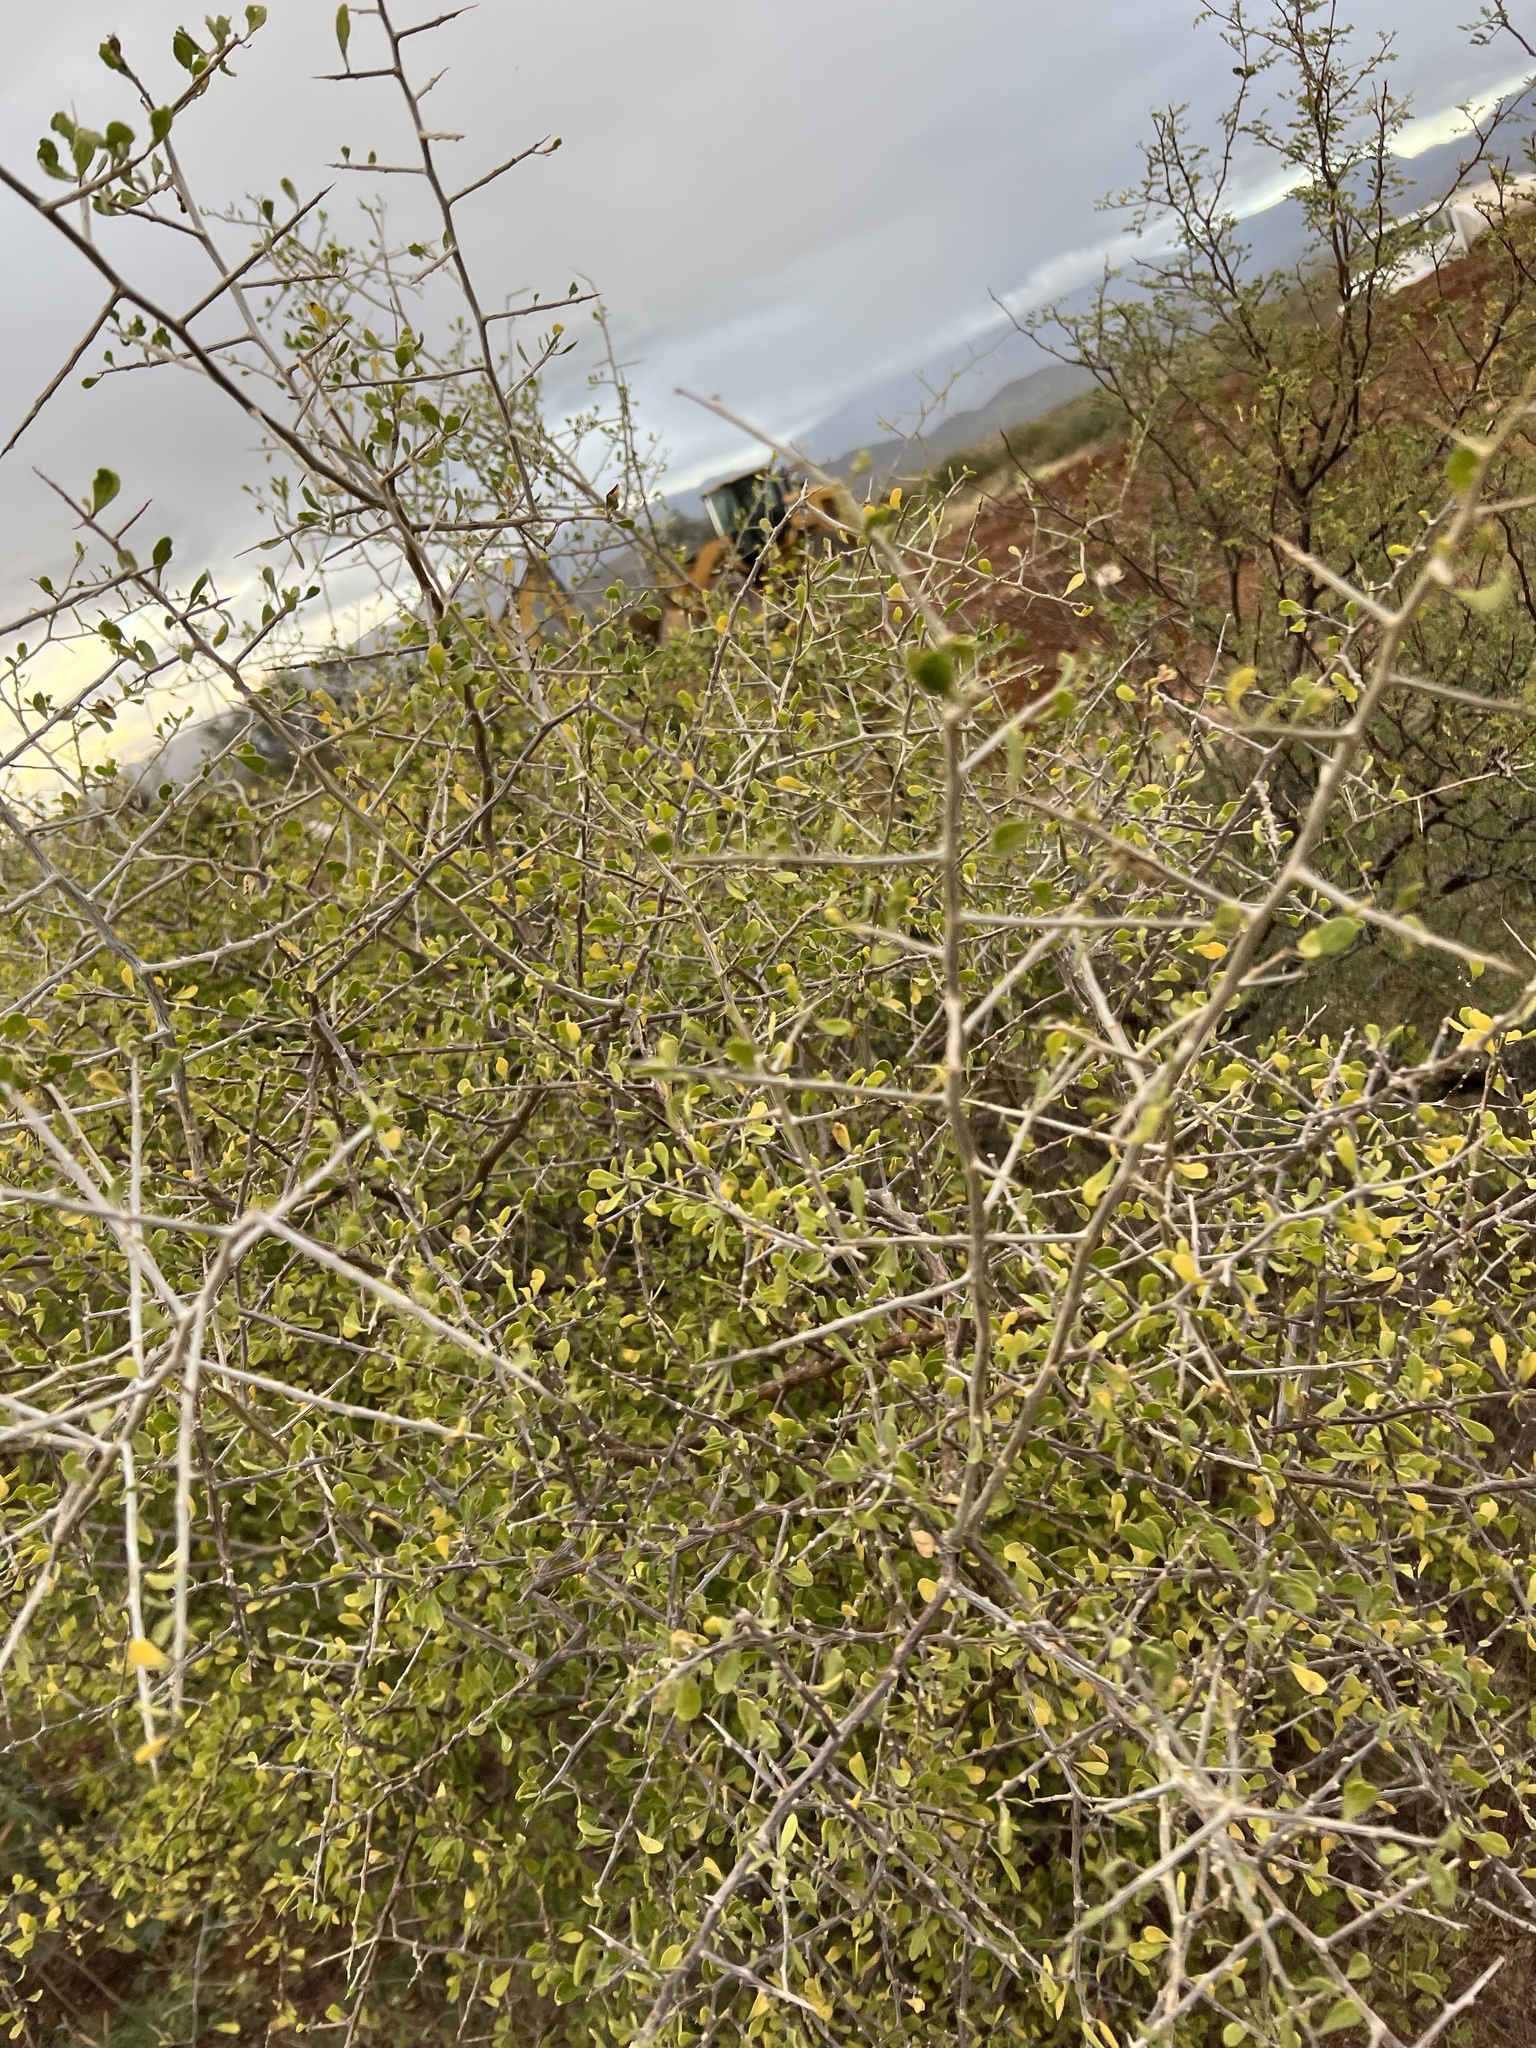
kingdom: Plantae
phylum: Tracheophyta
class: Magnoliopsida
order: Solanales
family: Solanaceae
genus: Lycium
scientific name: Lycium exsertum
